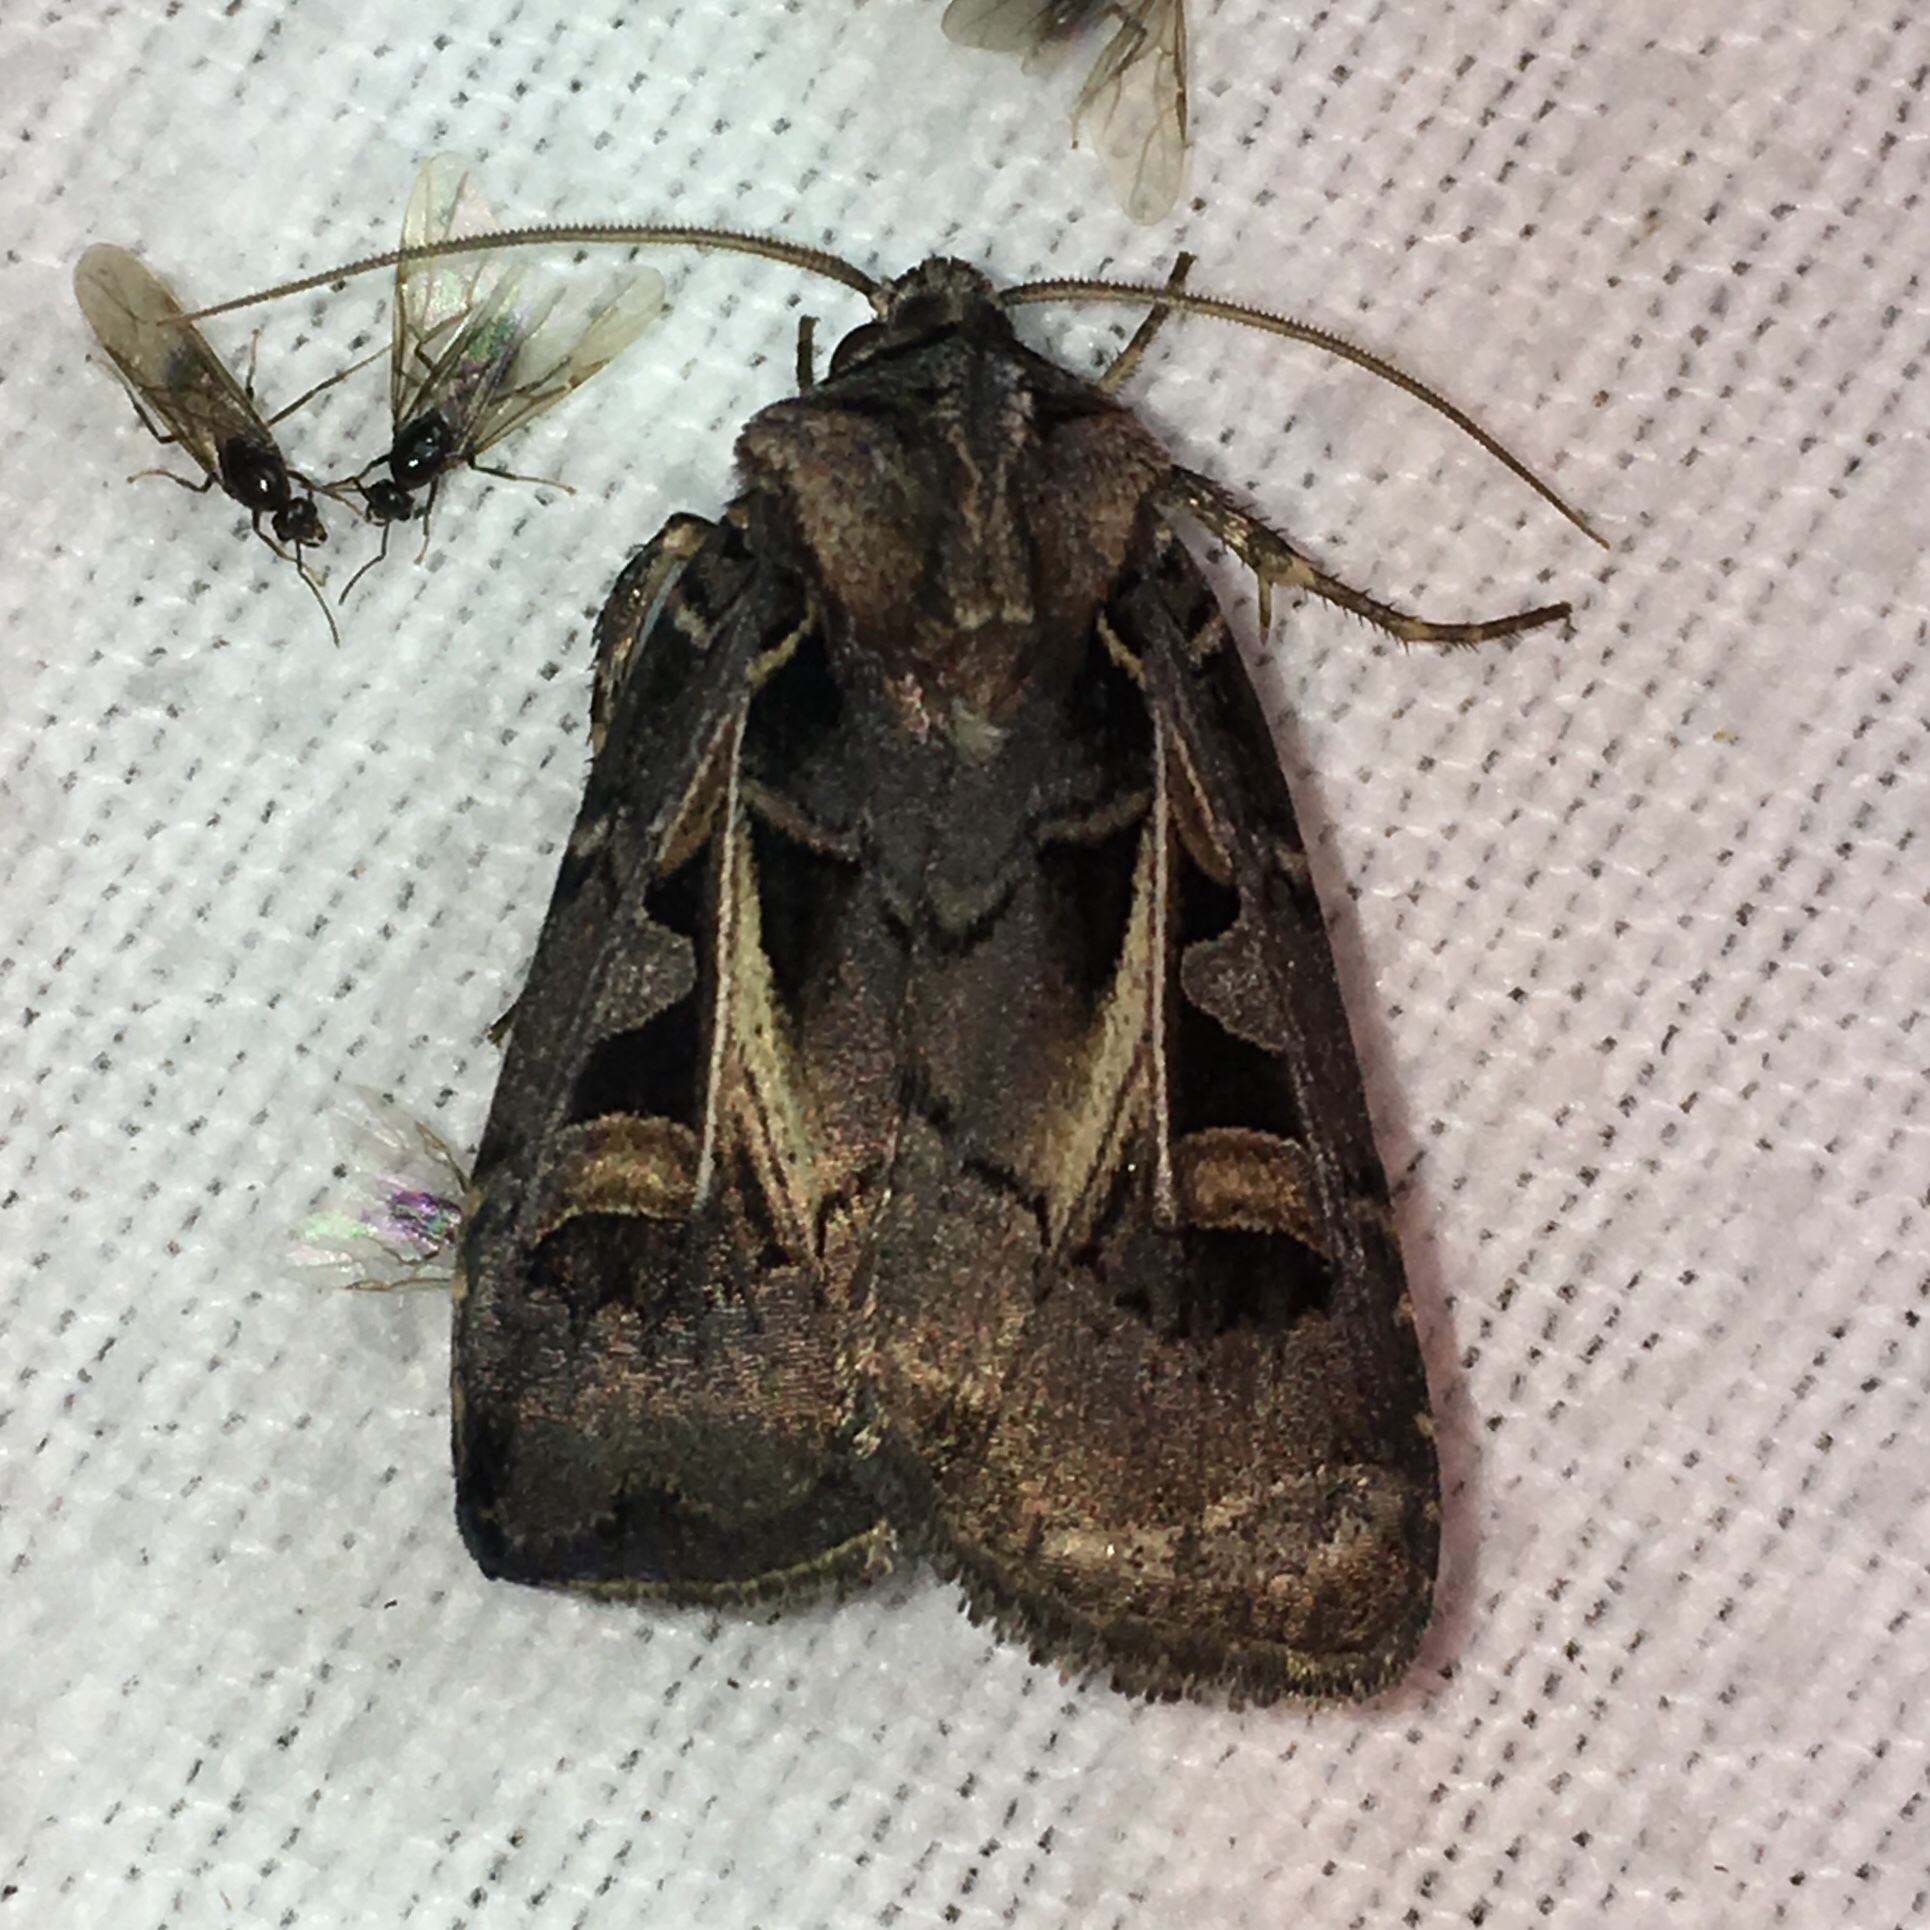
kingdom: Animalia
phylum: Arthropoda
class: Insecta
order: Lepidoptera
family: Noctuidae
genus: Feltia
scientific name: Feltia herilis
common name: Master's dart
